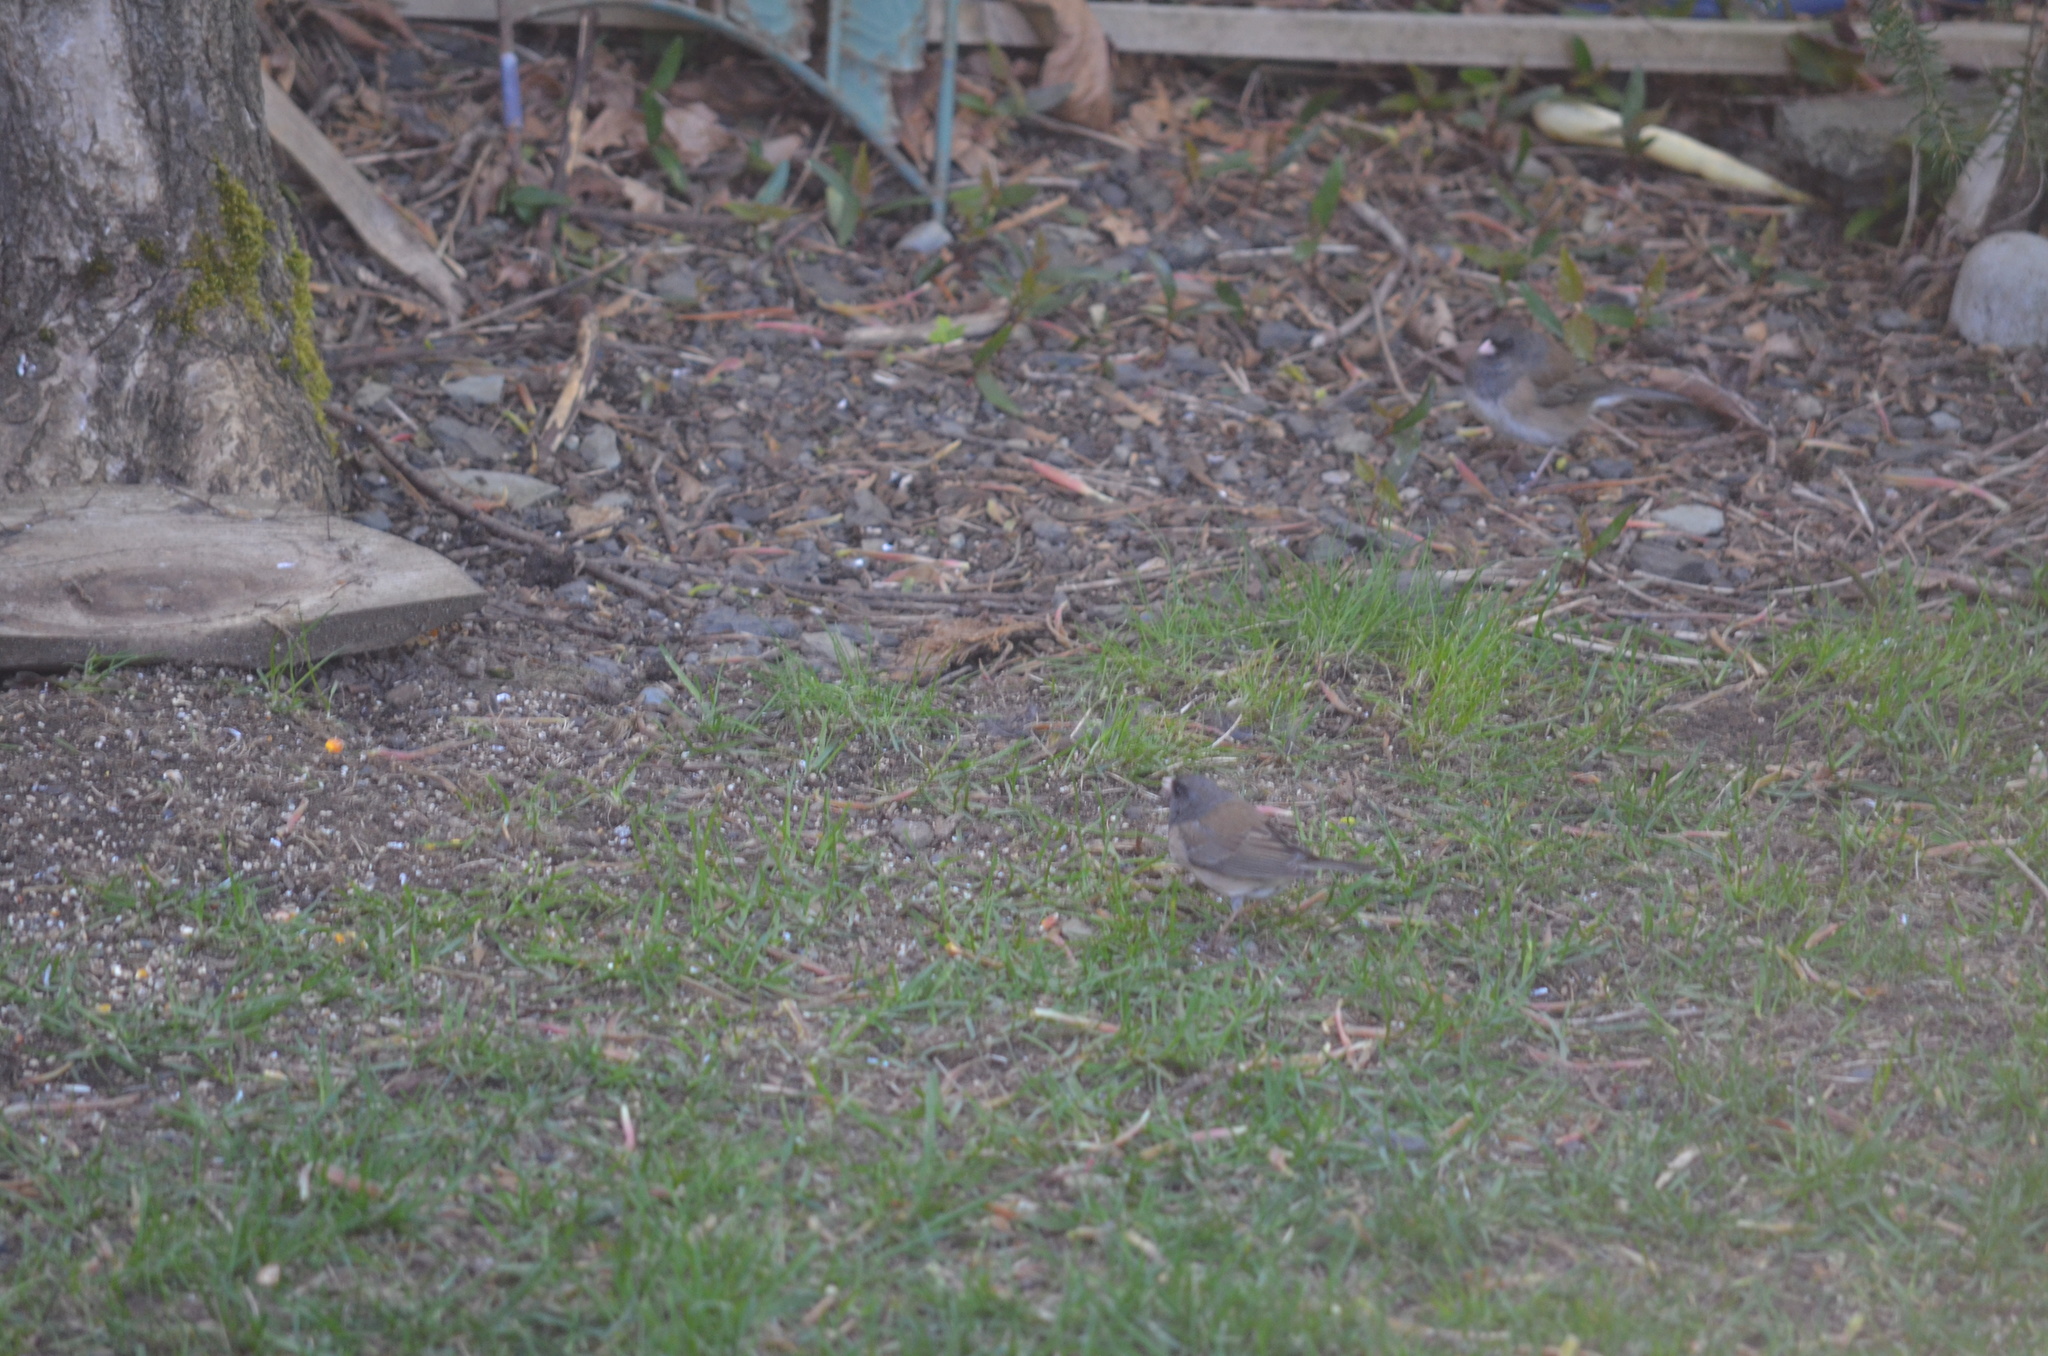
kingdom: Animalia
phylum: Chordata
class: Aves
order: Passeriformes
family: Passerellidae
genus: Junco
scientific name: Junco hyemalis
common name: Dark-eyed junco
